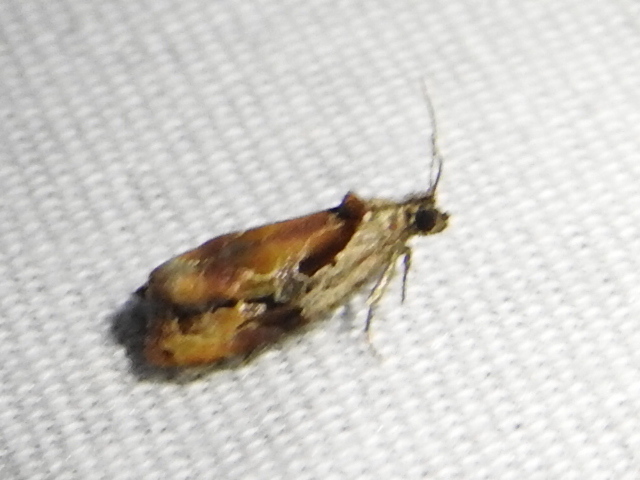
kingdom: Animalia
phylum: Arthropoda
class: Insecta
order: Lepidoptera
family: Tortricidae
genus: Zomaria
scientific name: Zomaria interruptolineana
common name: Broken-lined zomaria moth
